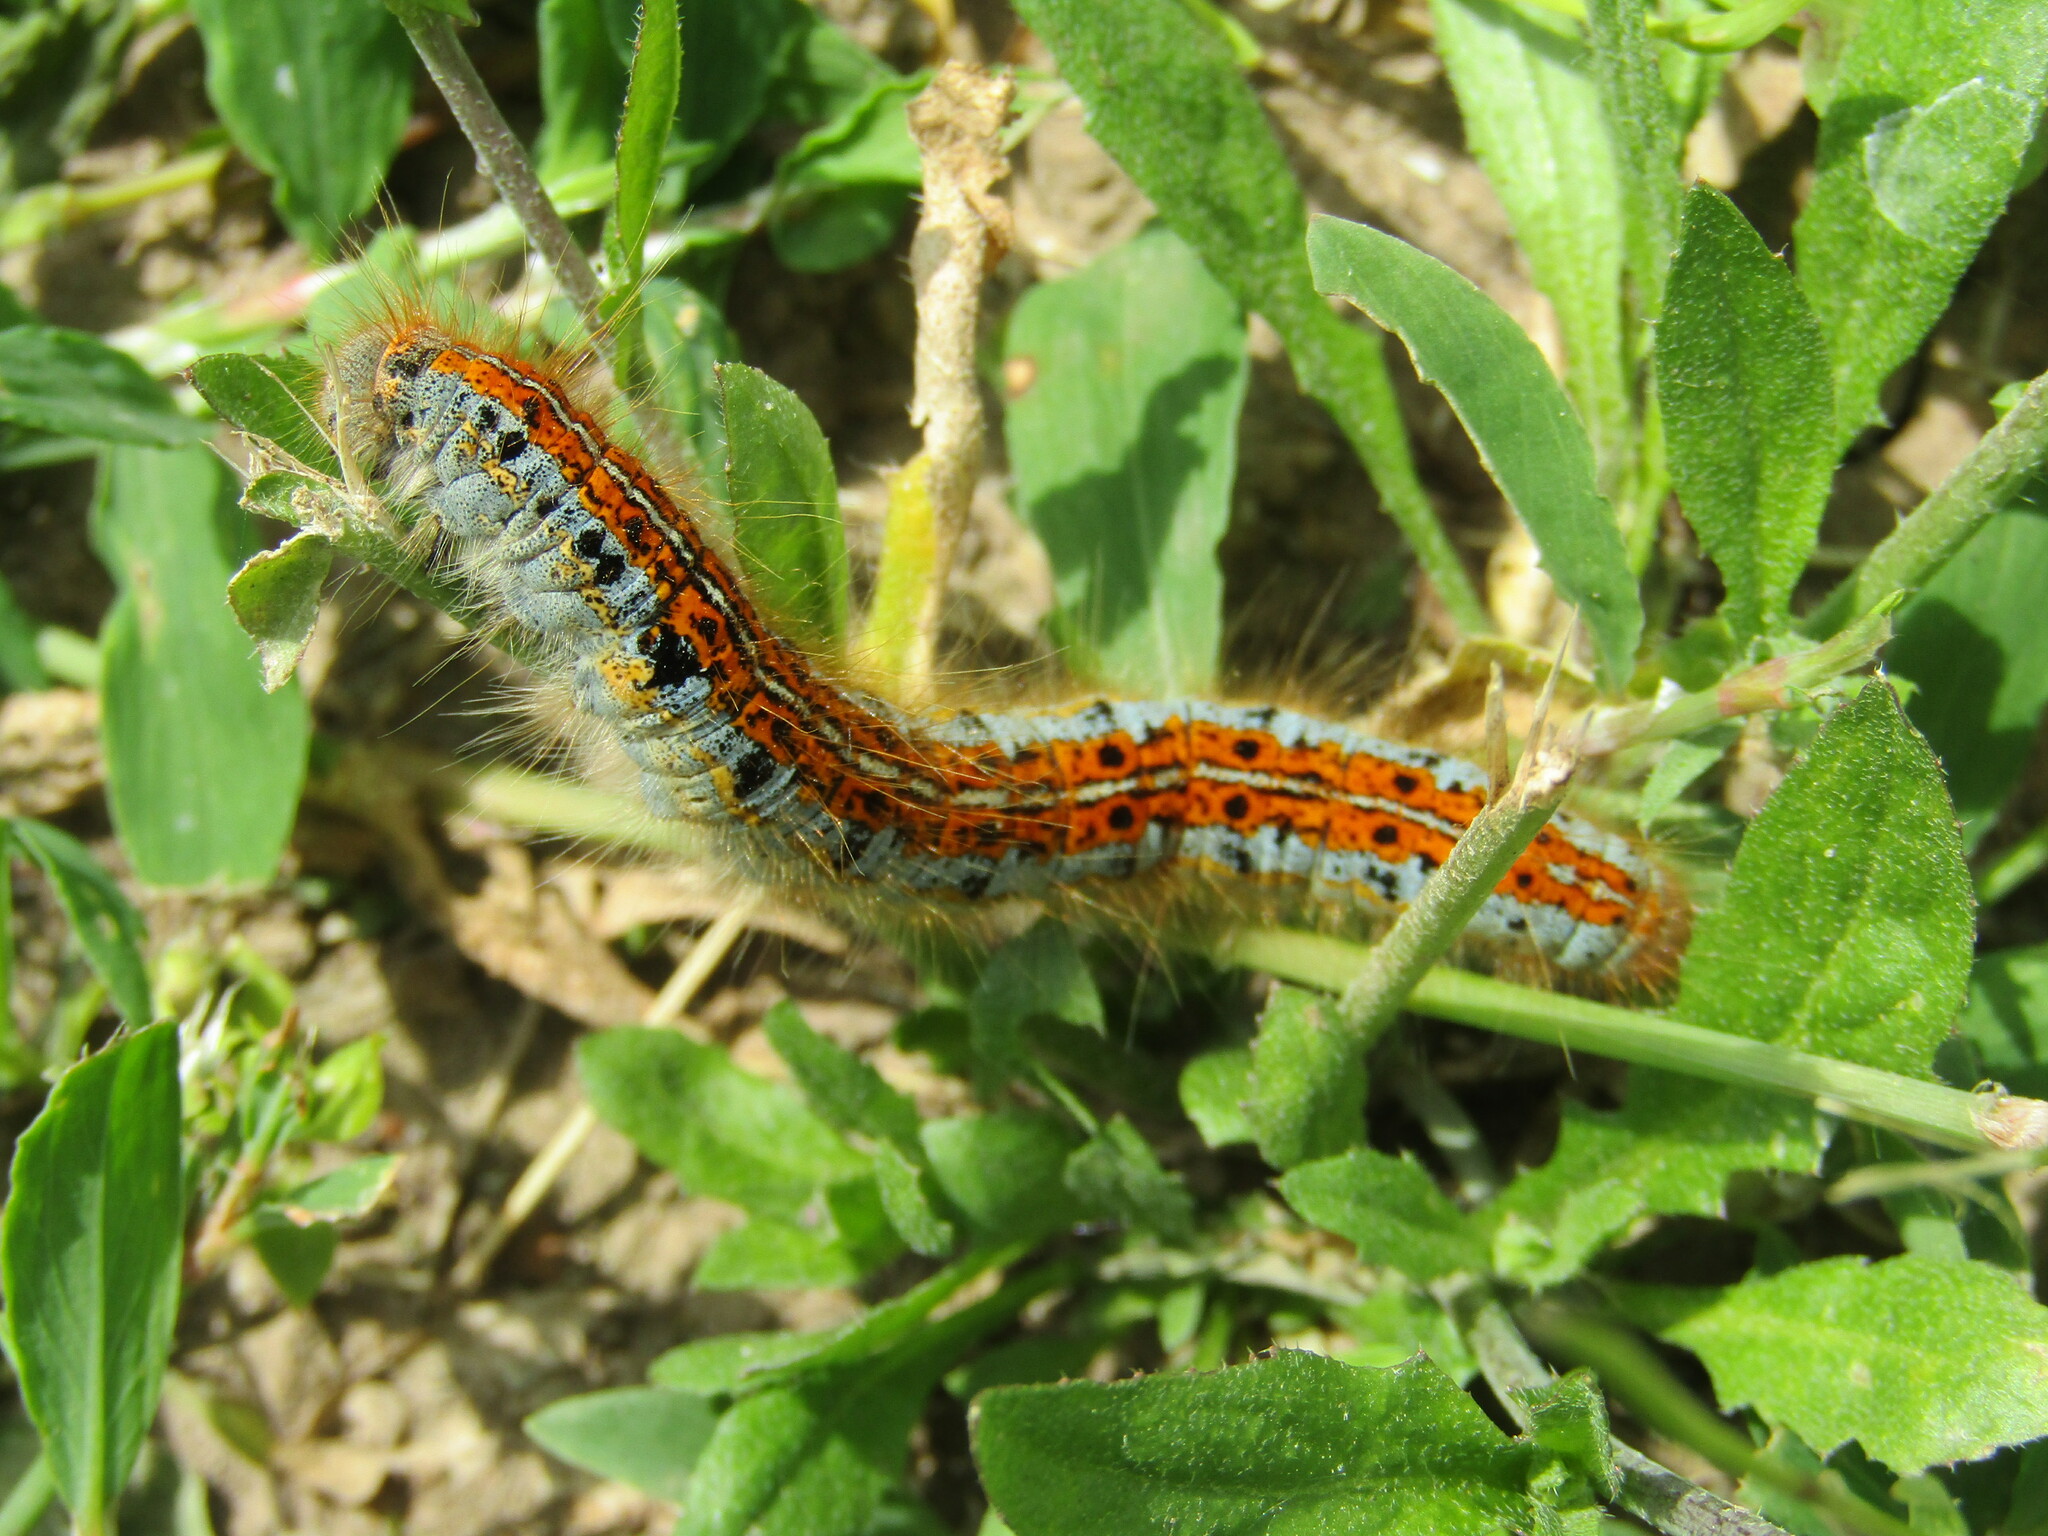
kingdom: Animalia
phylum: Arthropoda
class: Insecta
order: Lepidoptera
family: Lasiocampidae
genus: Malacosoma
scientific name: Malacosoma castrense
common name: Ground lackey
